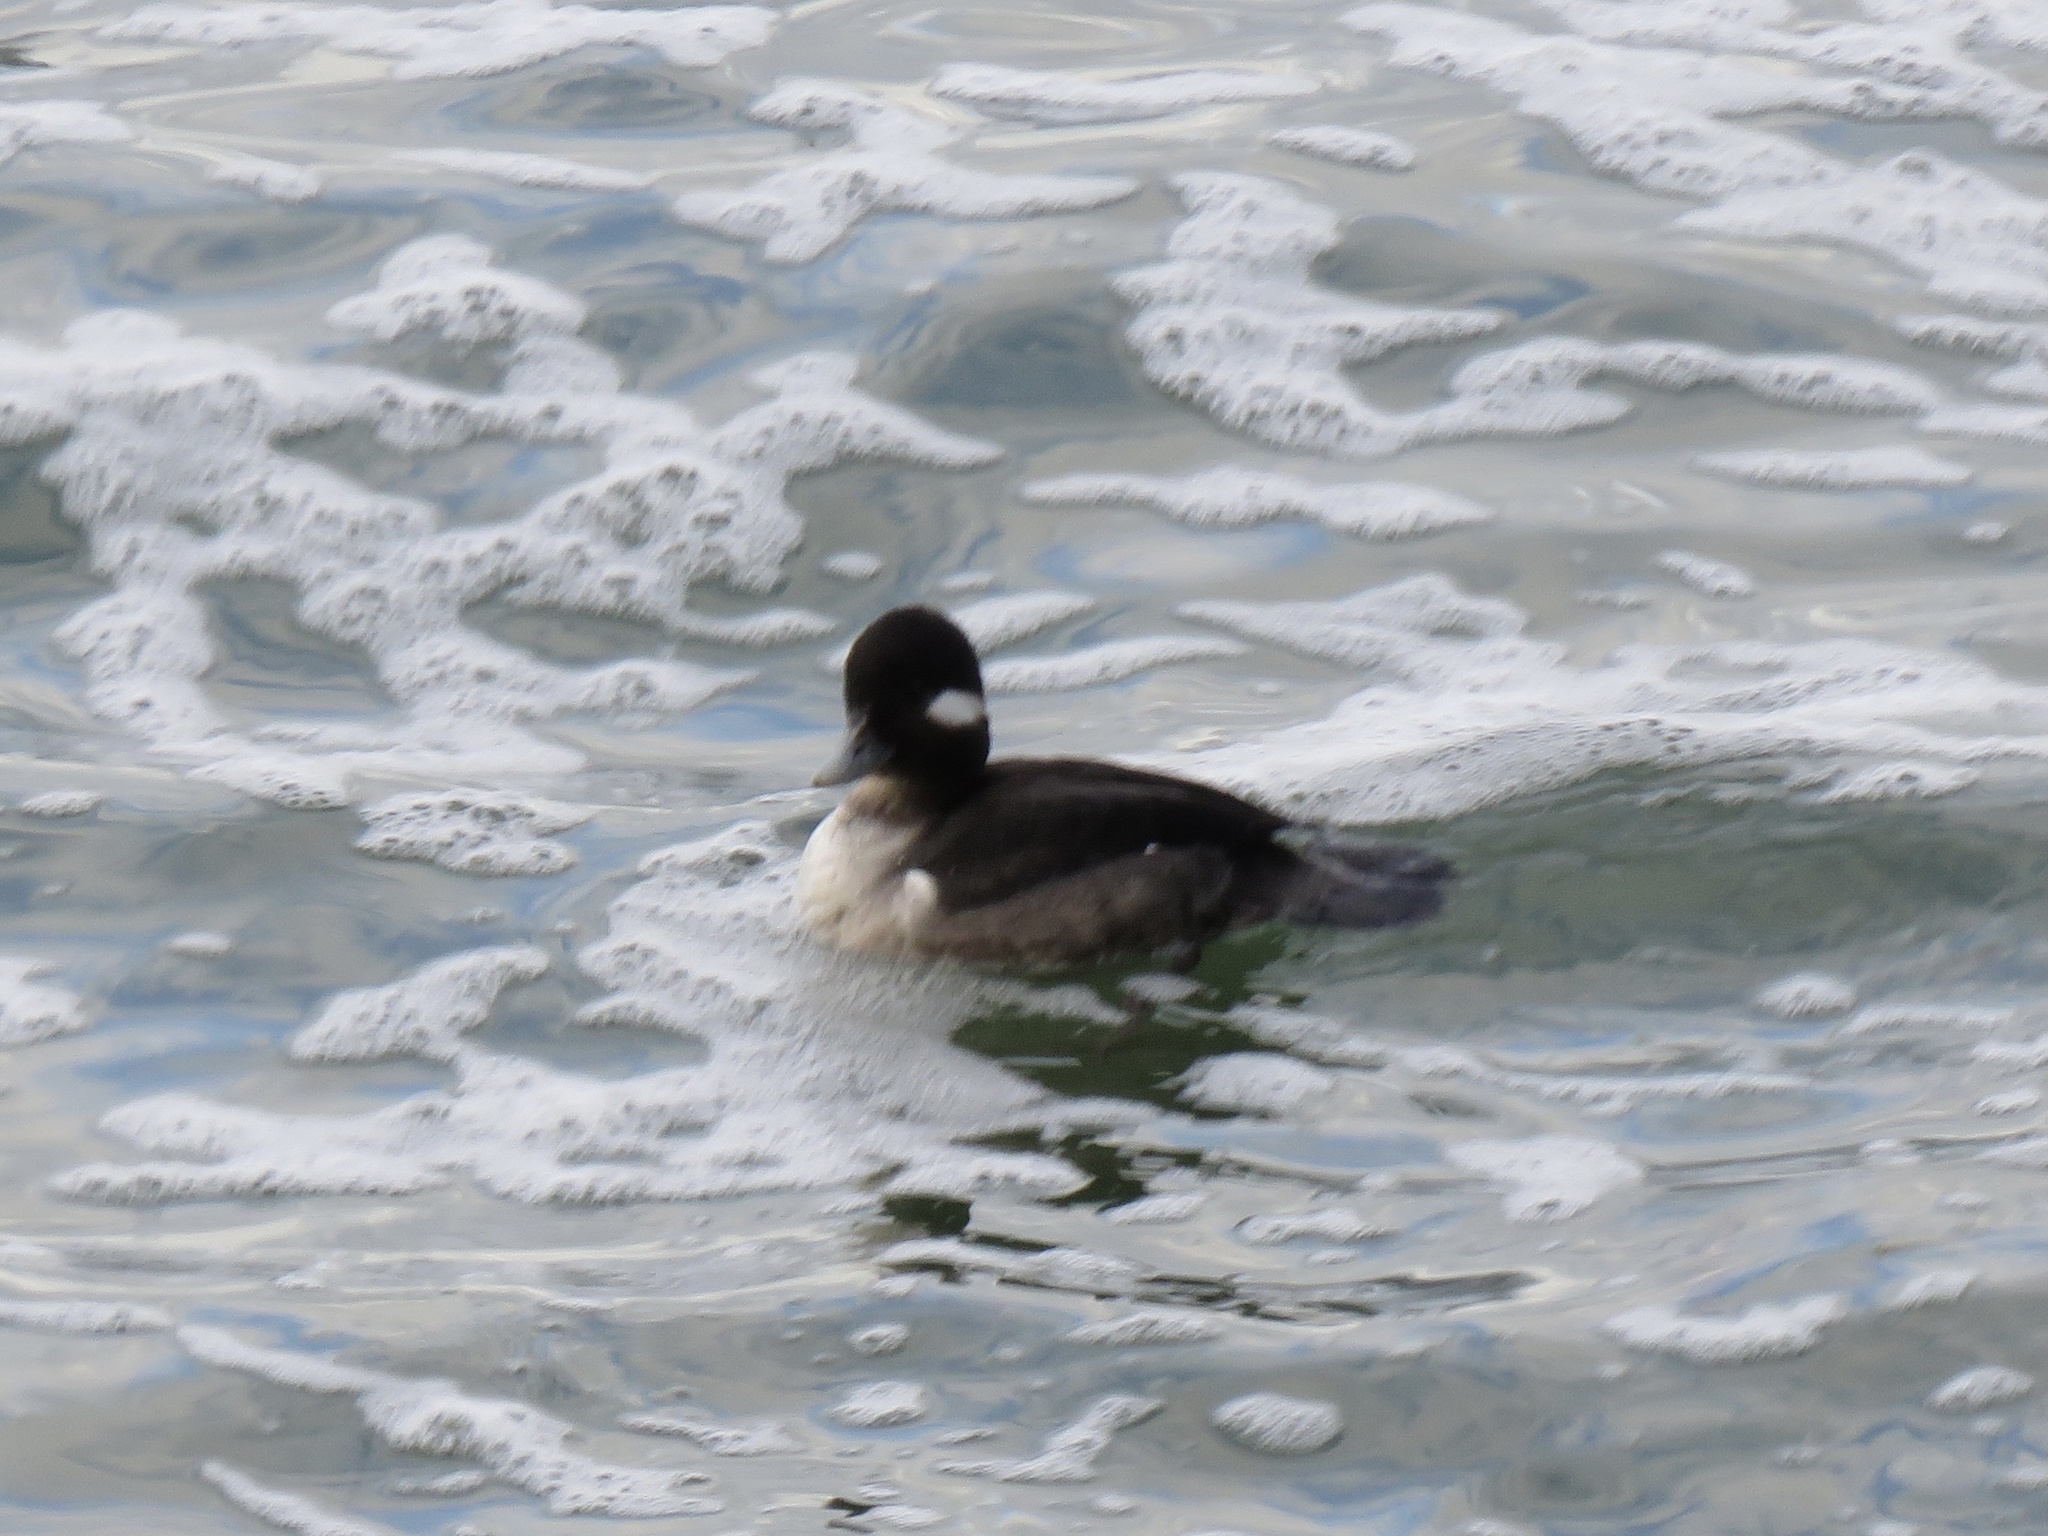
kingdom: Animalia
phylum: Chordata
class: Aves
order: Anseriformes
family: Anatidae
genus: Bucephala
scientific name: Bucephala albeola
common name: Bufflehead
